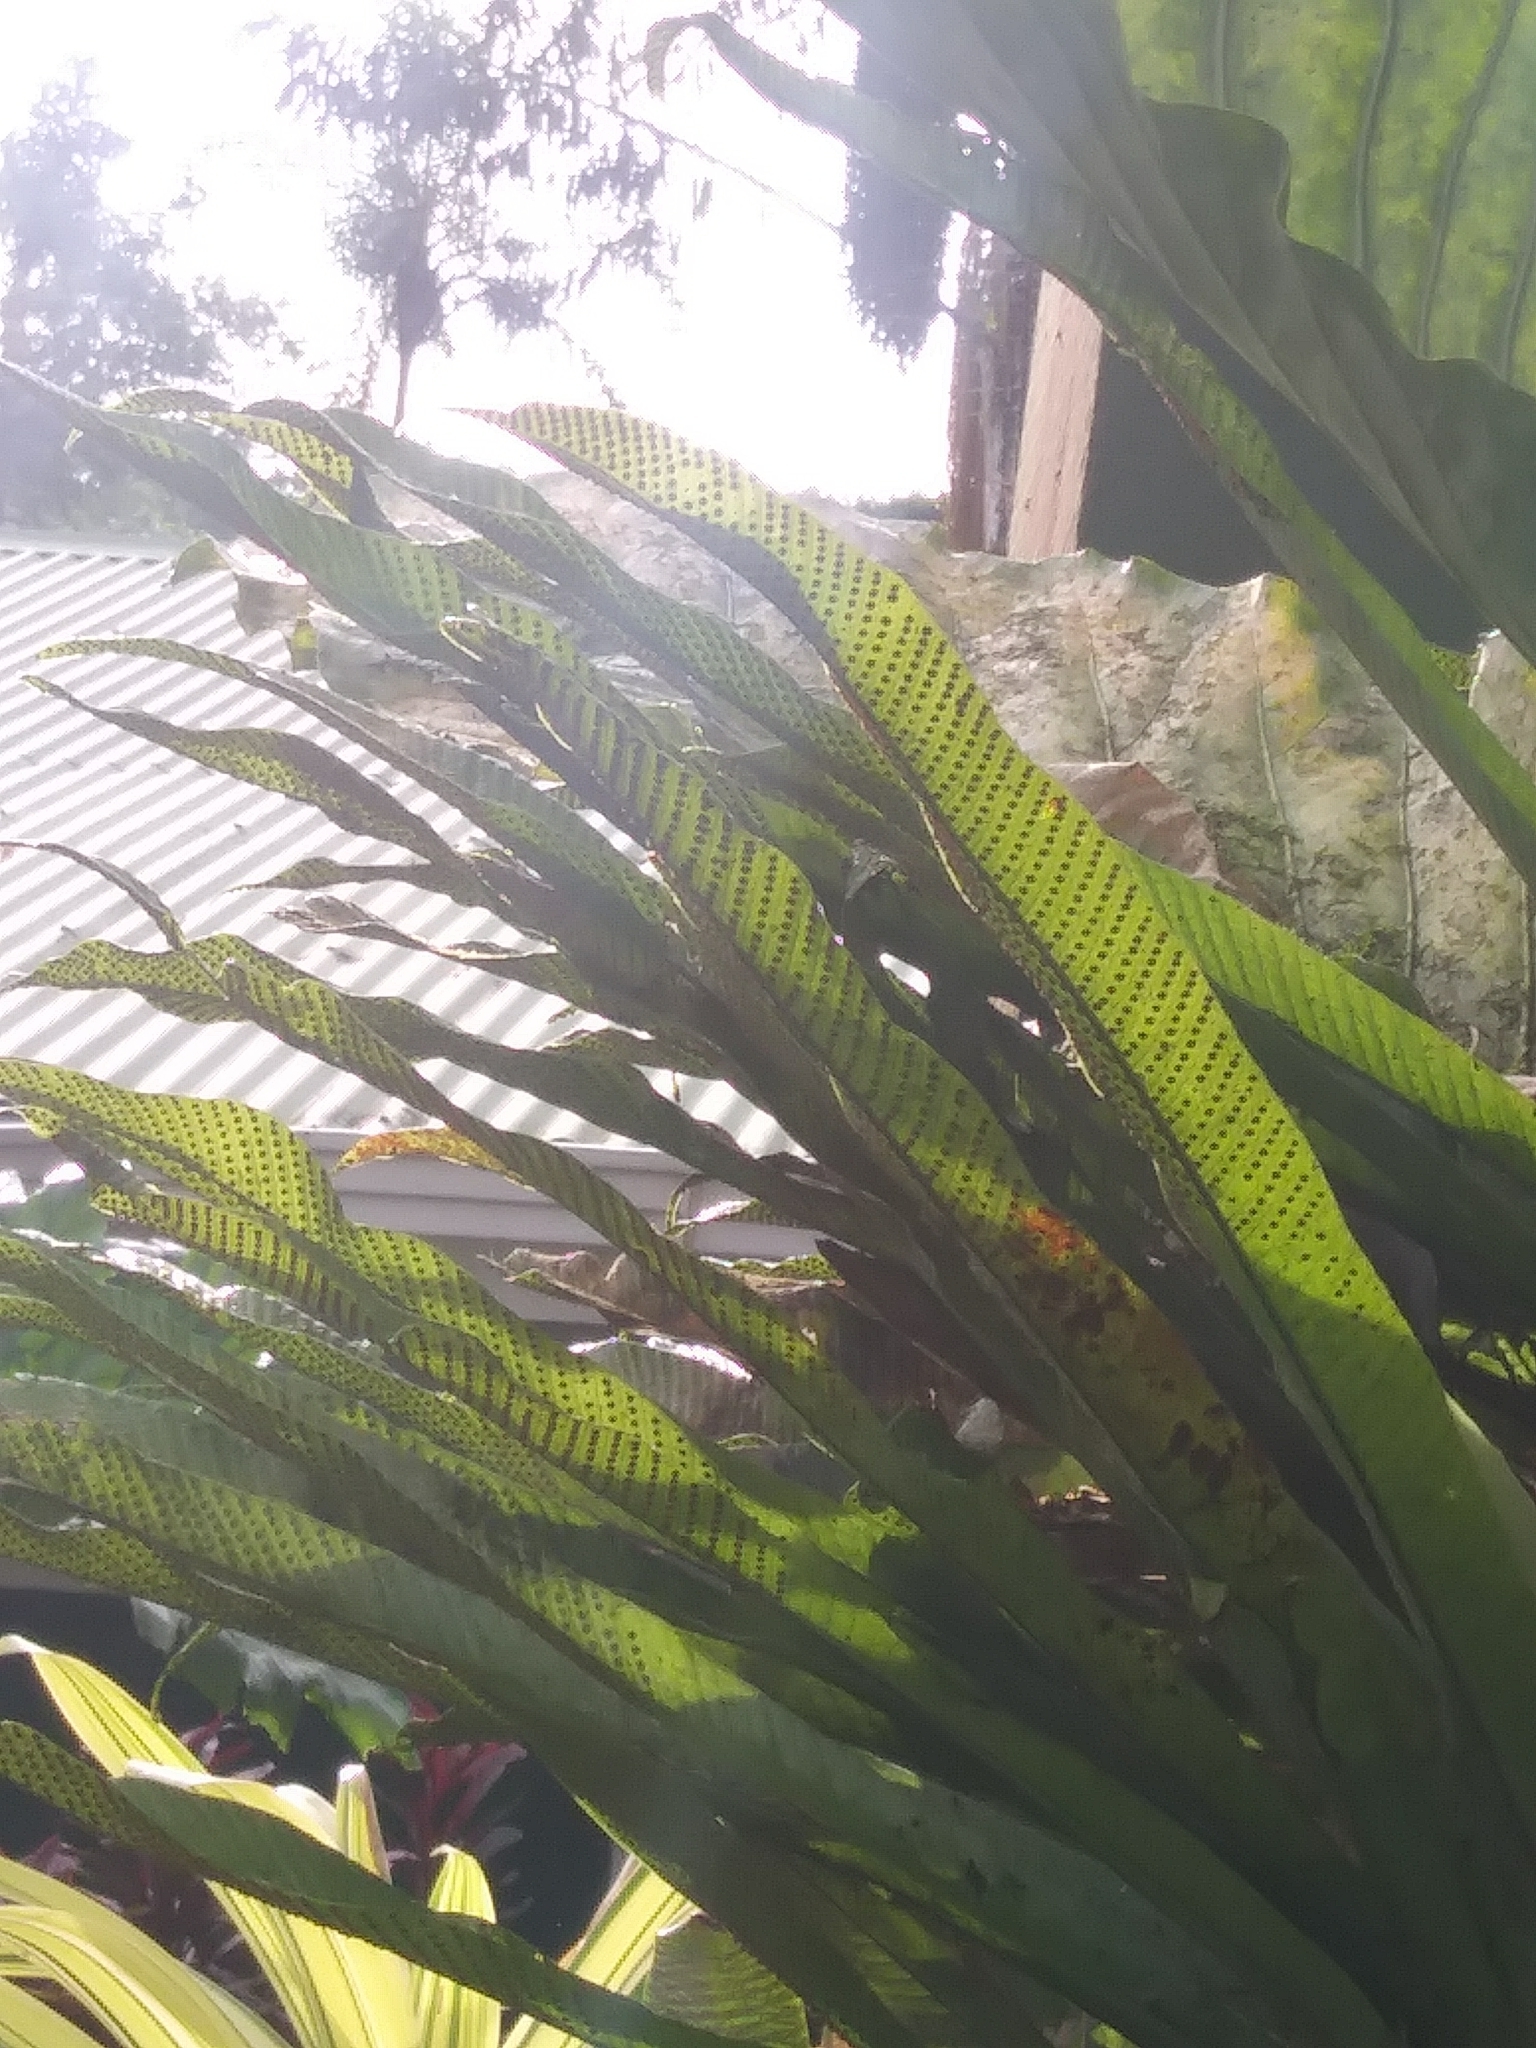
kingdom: Plantae
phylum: Tracheophyta
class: Polypodiopsida
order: Polypodiales
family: Polypodiaceae
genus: Niphidium
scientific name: Niphidium crassifolium
